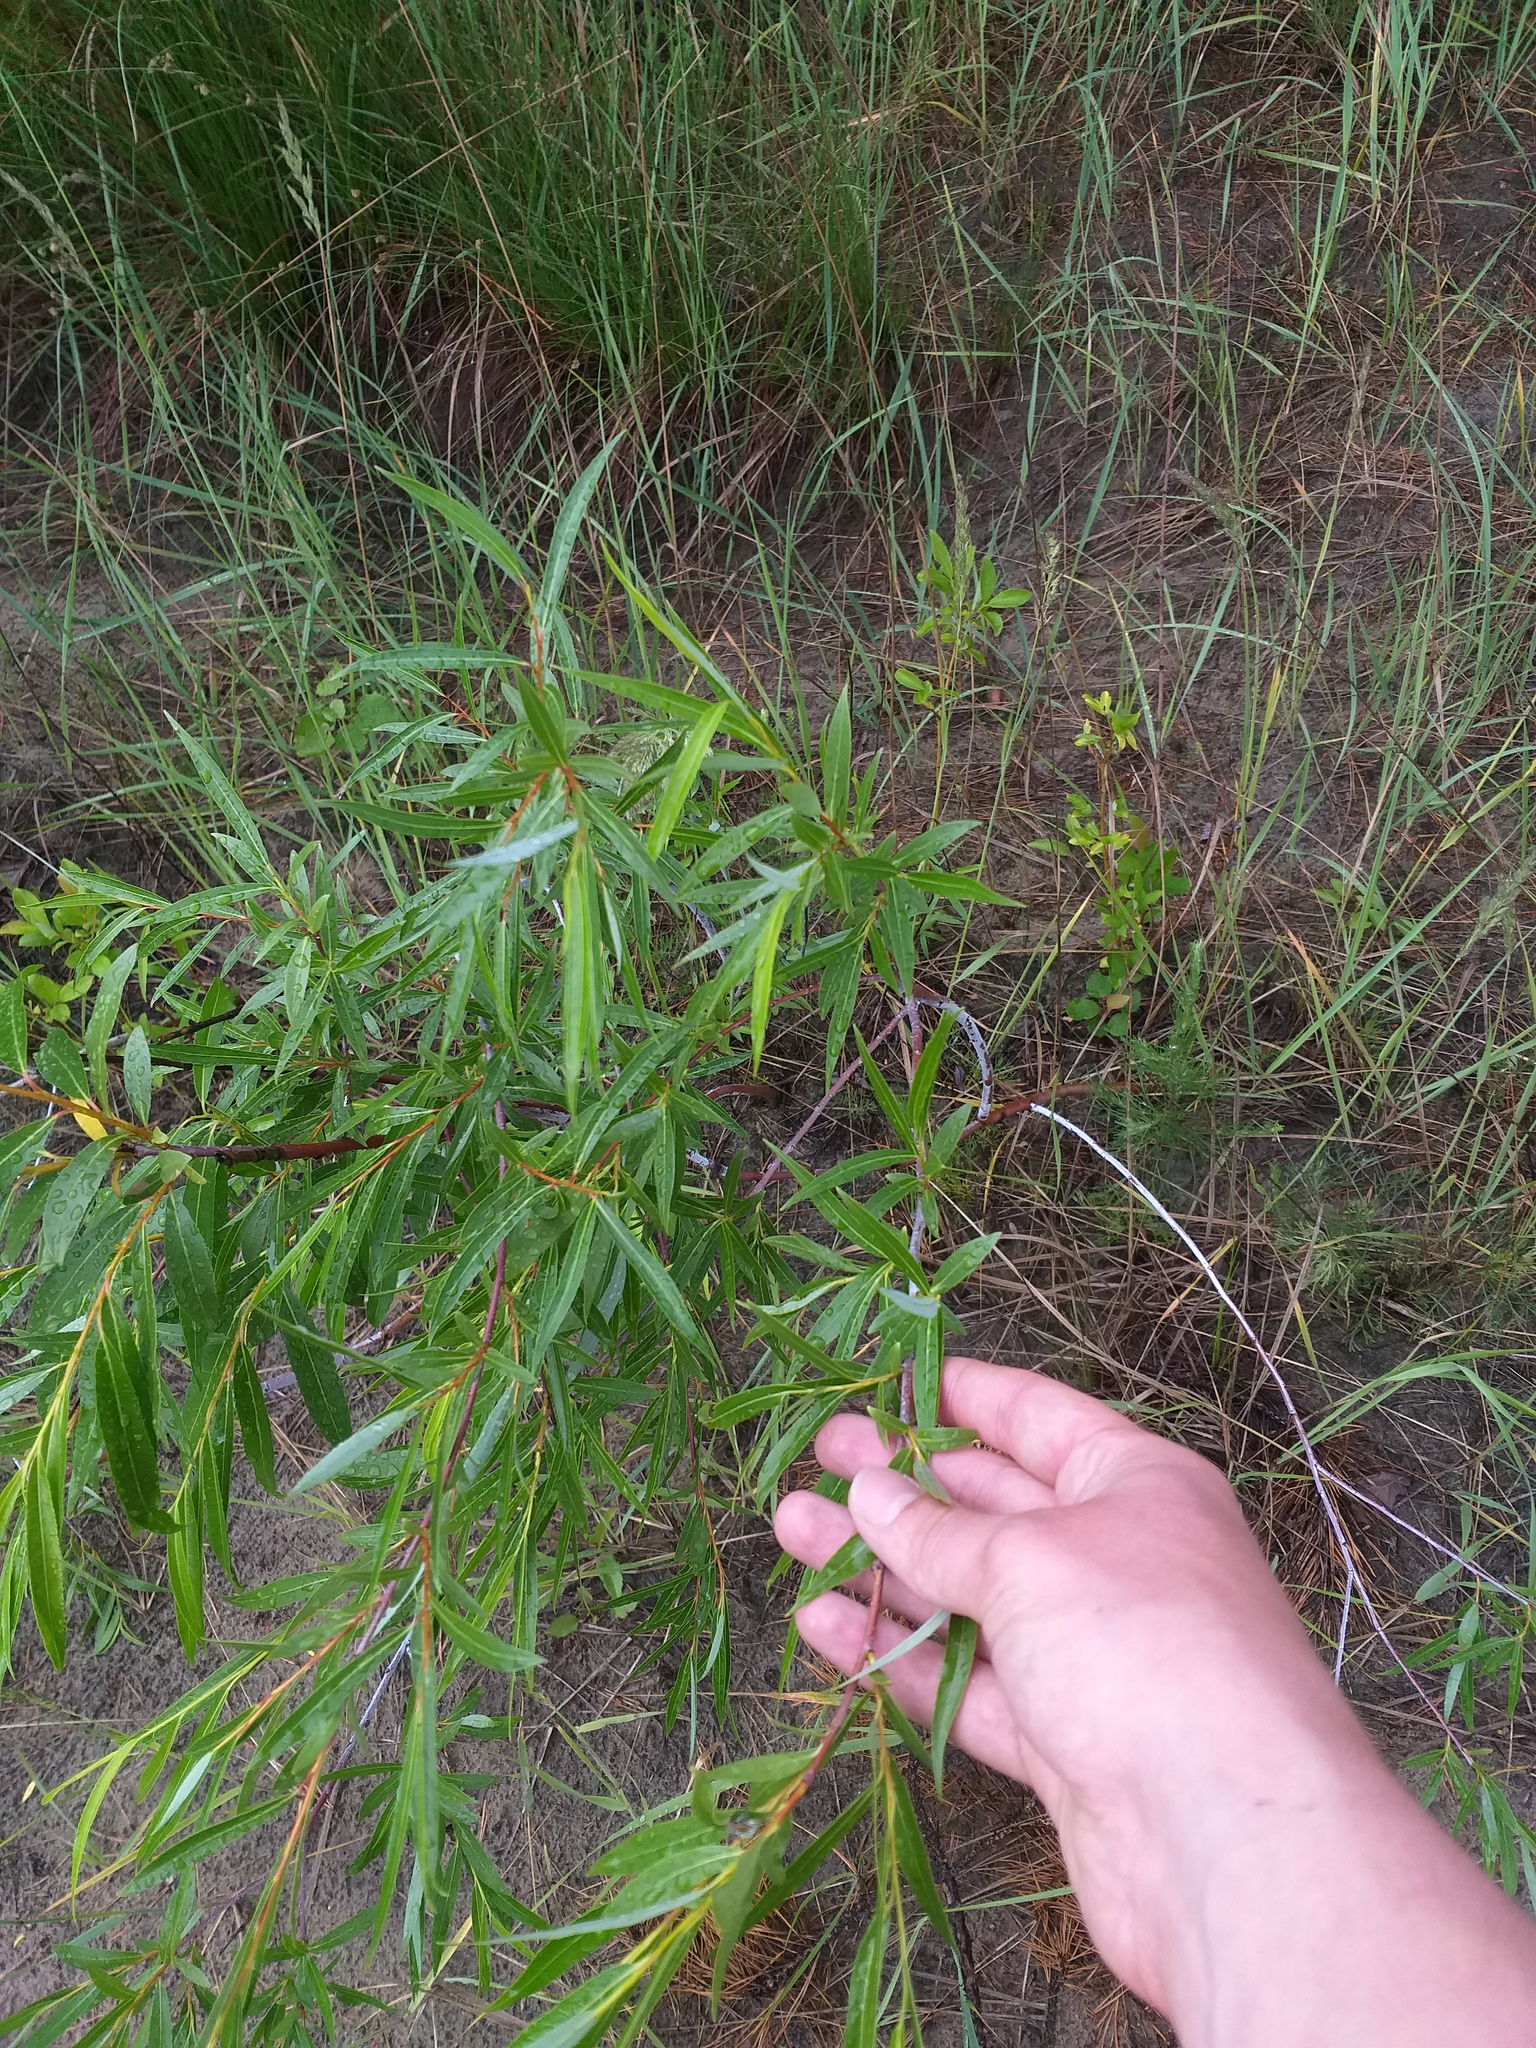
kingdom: Plantae
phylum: Tracheophyta
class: Magnoliopsida
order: Malpighiales
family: Salicaceae
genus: Salix
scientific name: Salix acutifolia
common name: Siberian violet-willow
